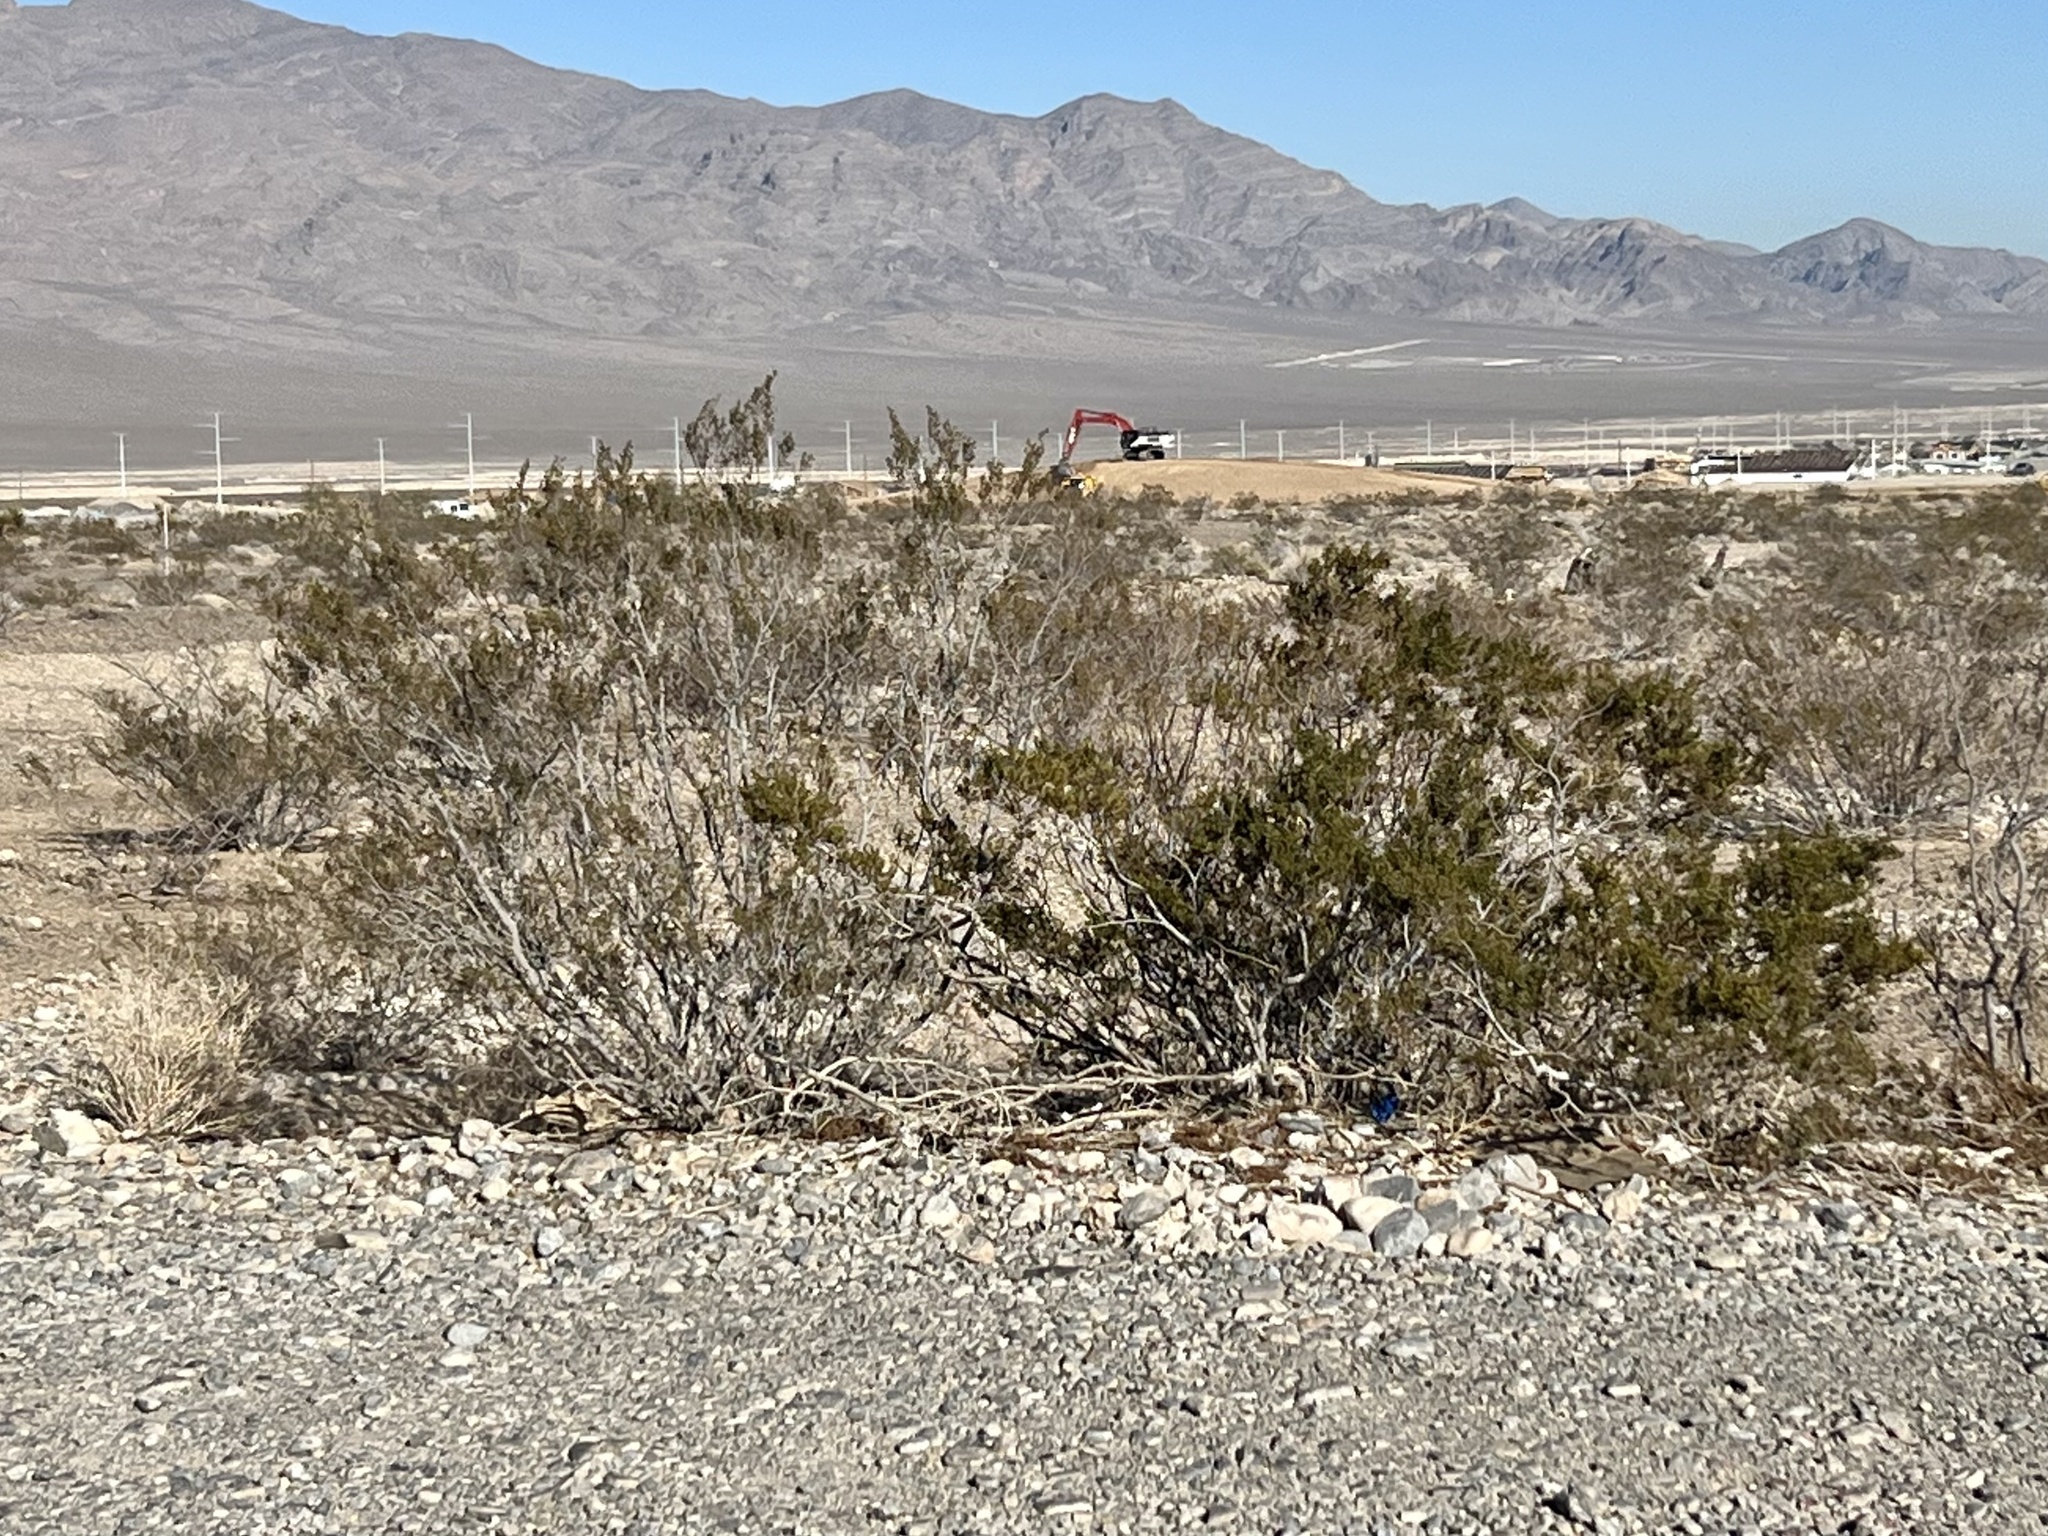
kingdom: Plantae
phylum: Tracheophyta
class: Magnoliopsida
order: Zygophyllales
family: Zygophyllaceae
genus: Larrea
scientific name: Larrea tridentata
